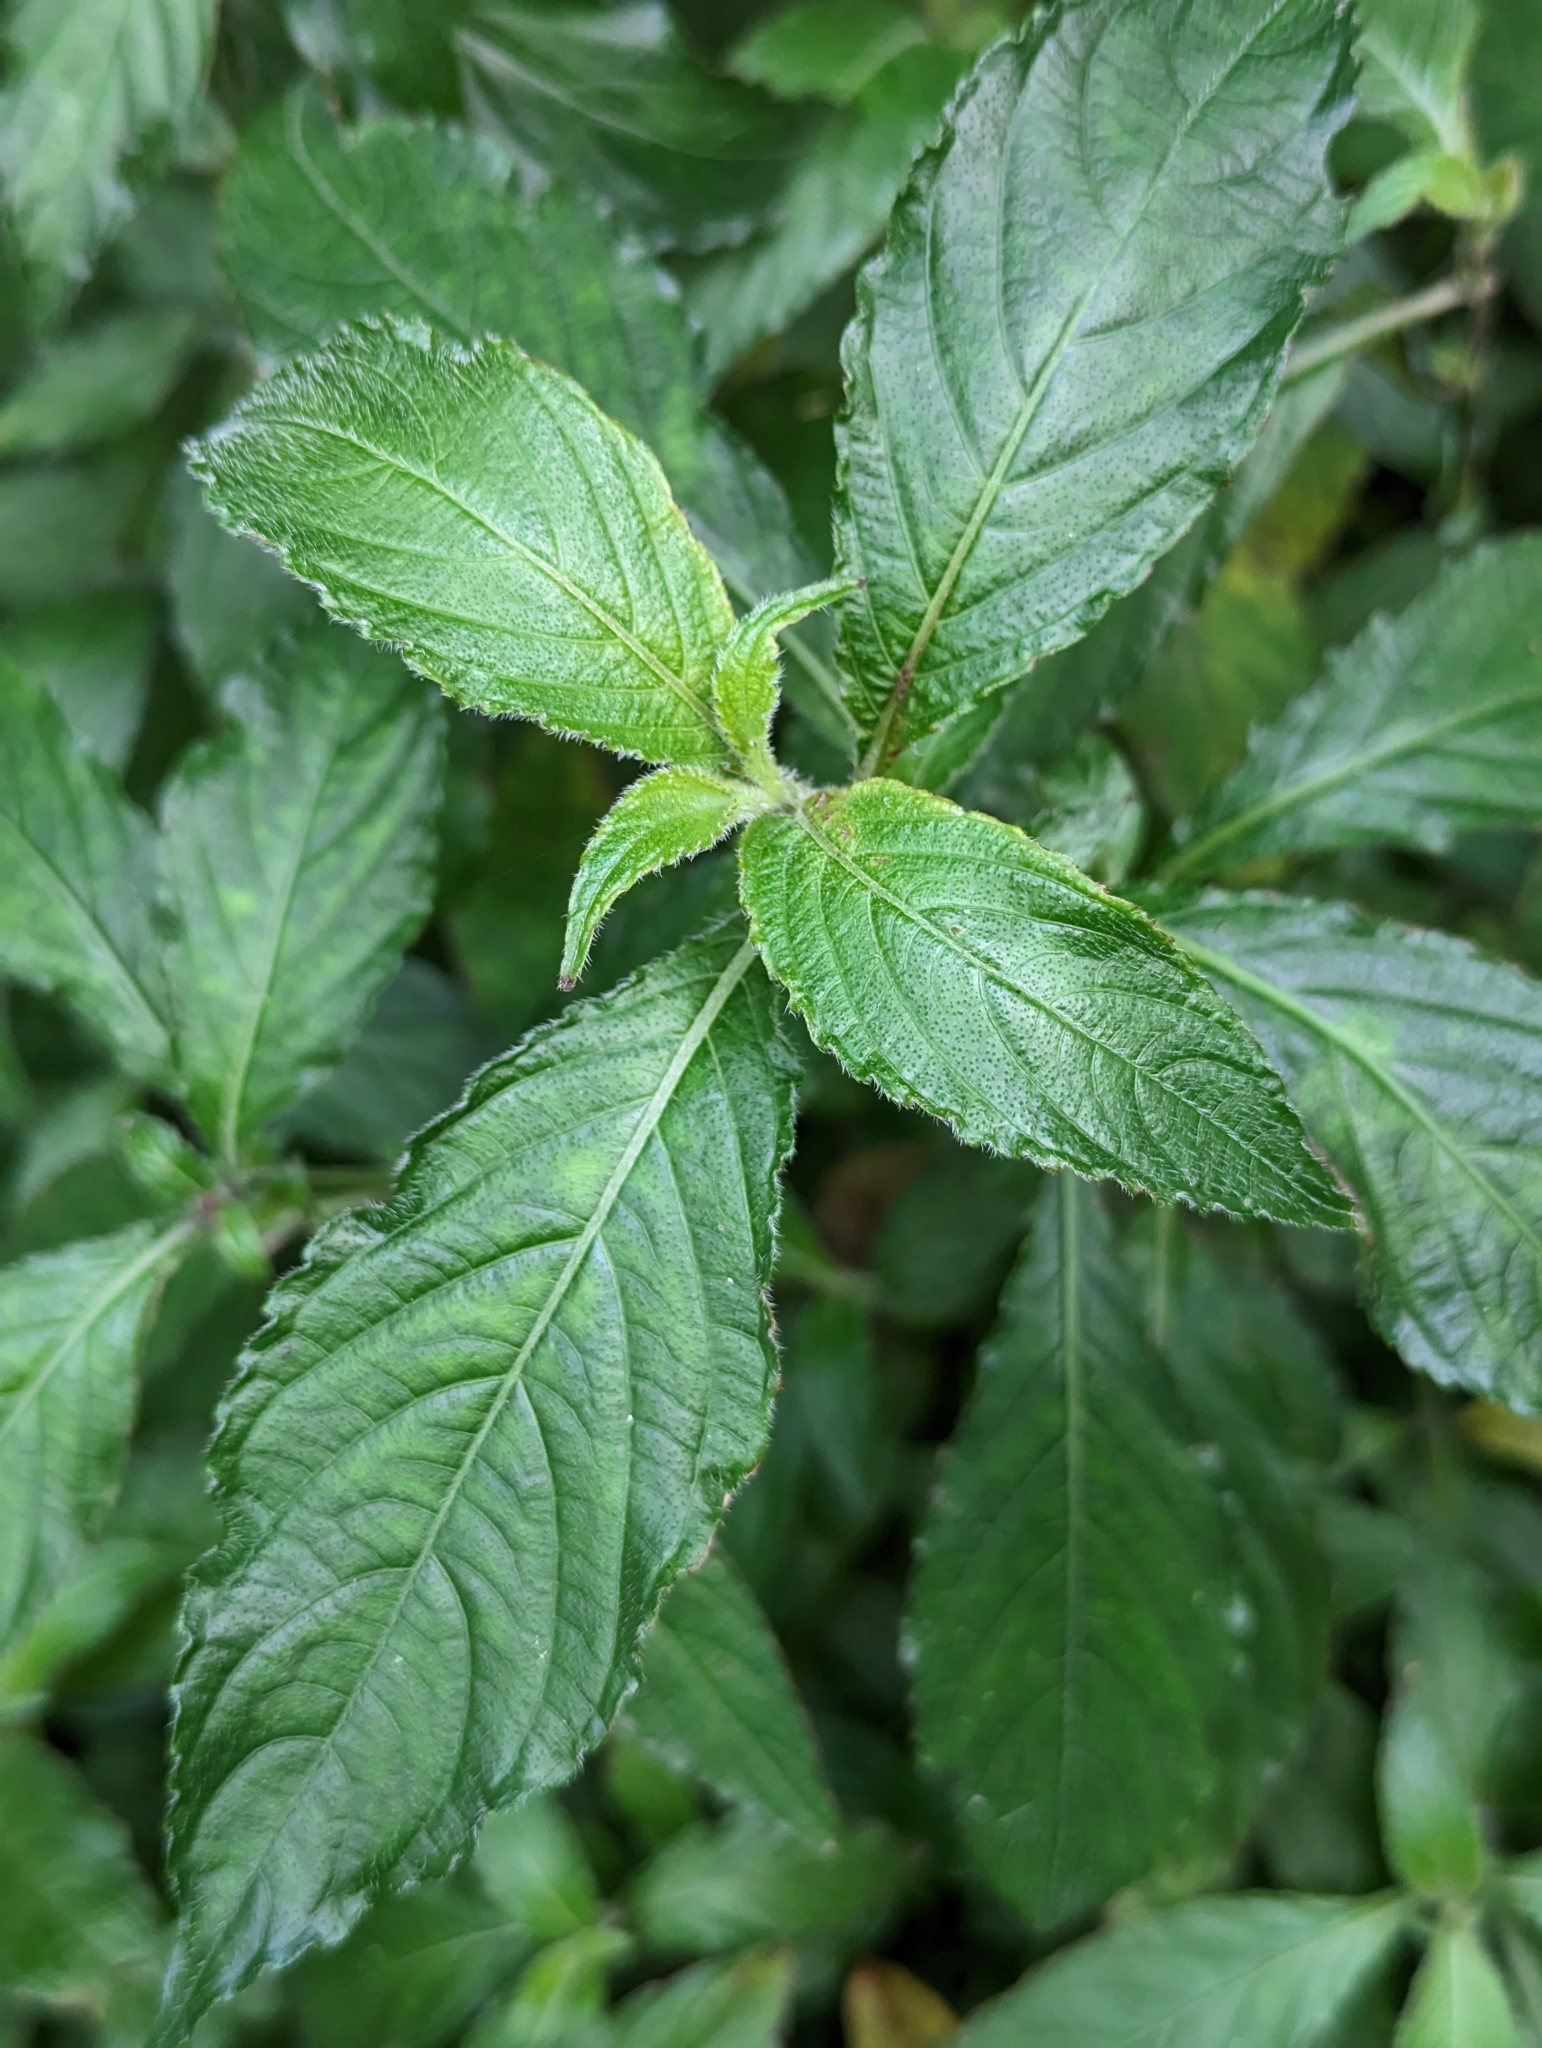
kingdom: Plantae
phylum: Tracheophyta
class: Magnoliopsida
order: Lamiales
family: Acanthaceae
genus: Strobilanthes
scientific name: Strobilanthes formosana
